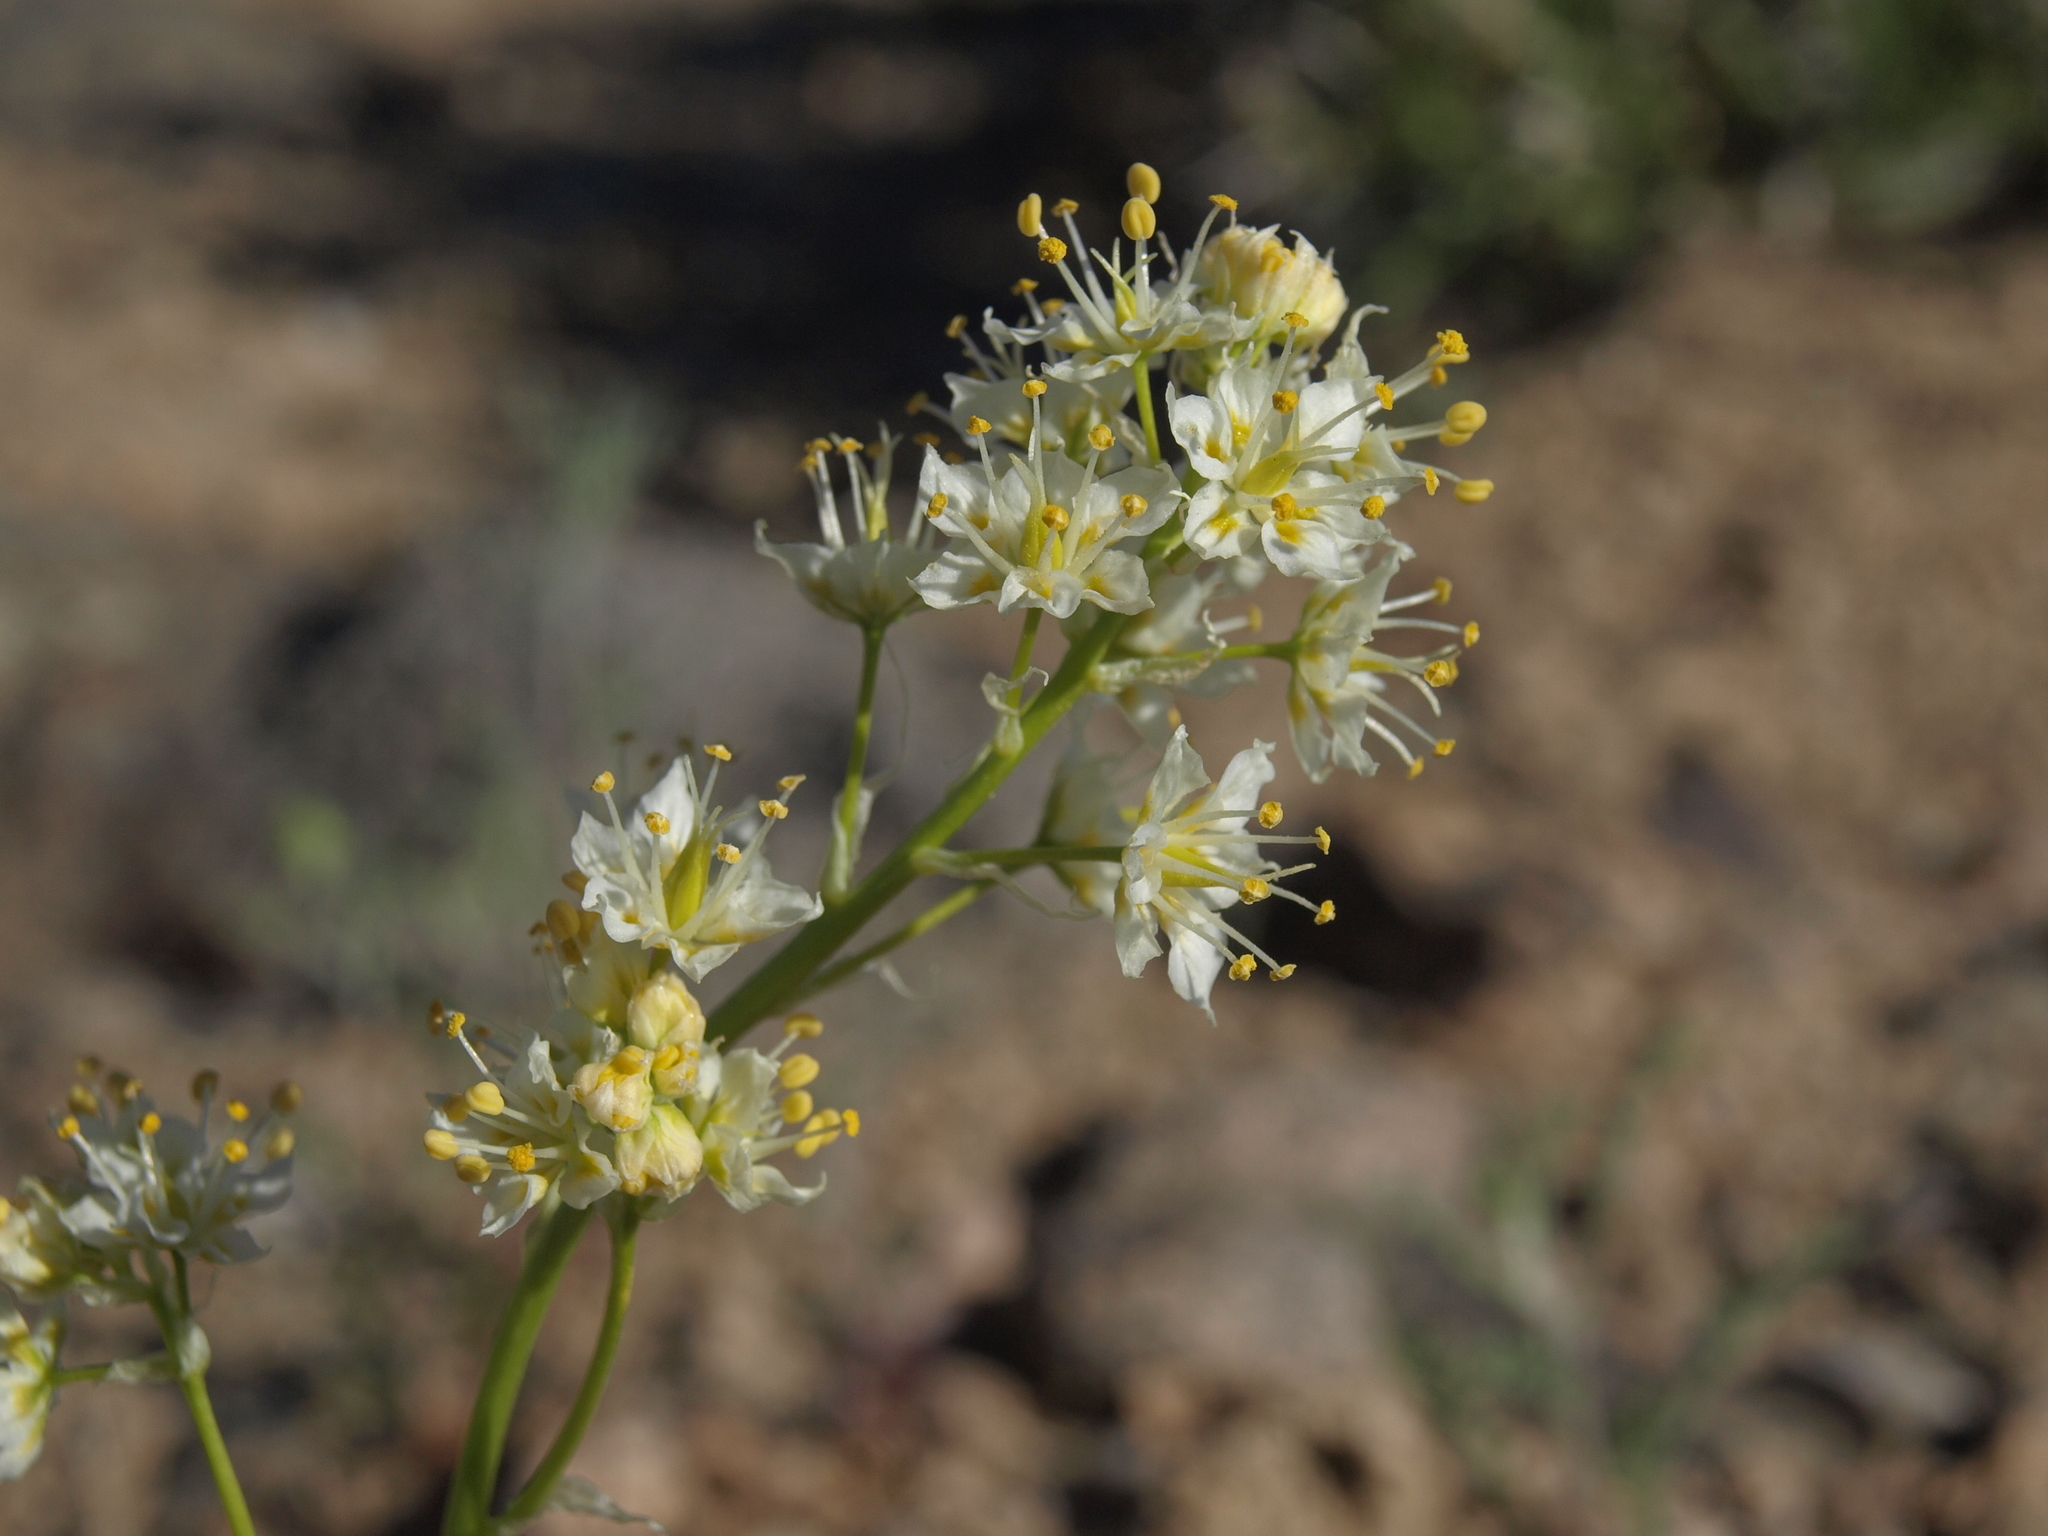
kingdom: Plantae
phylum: Tracheophyta
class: Liliopsida
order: Liliales
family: Melanthiaceae
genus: Toxicoscordion
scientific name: Toxicoscordion paniculatum
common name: Foothill death camas
